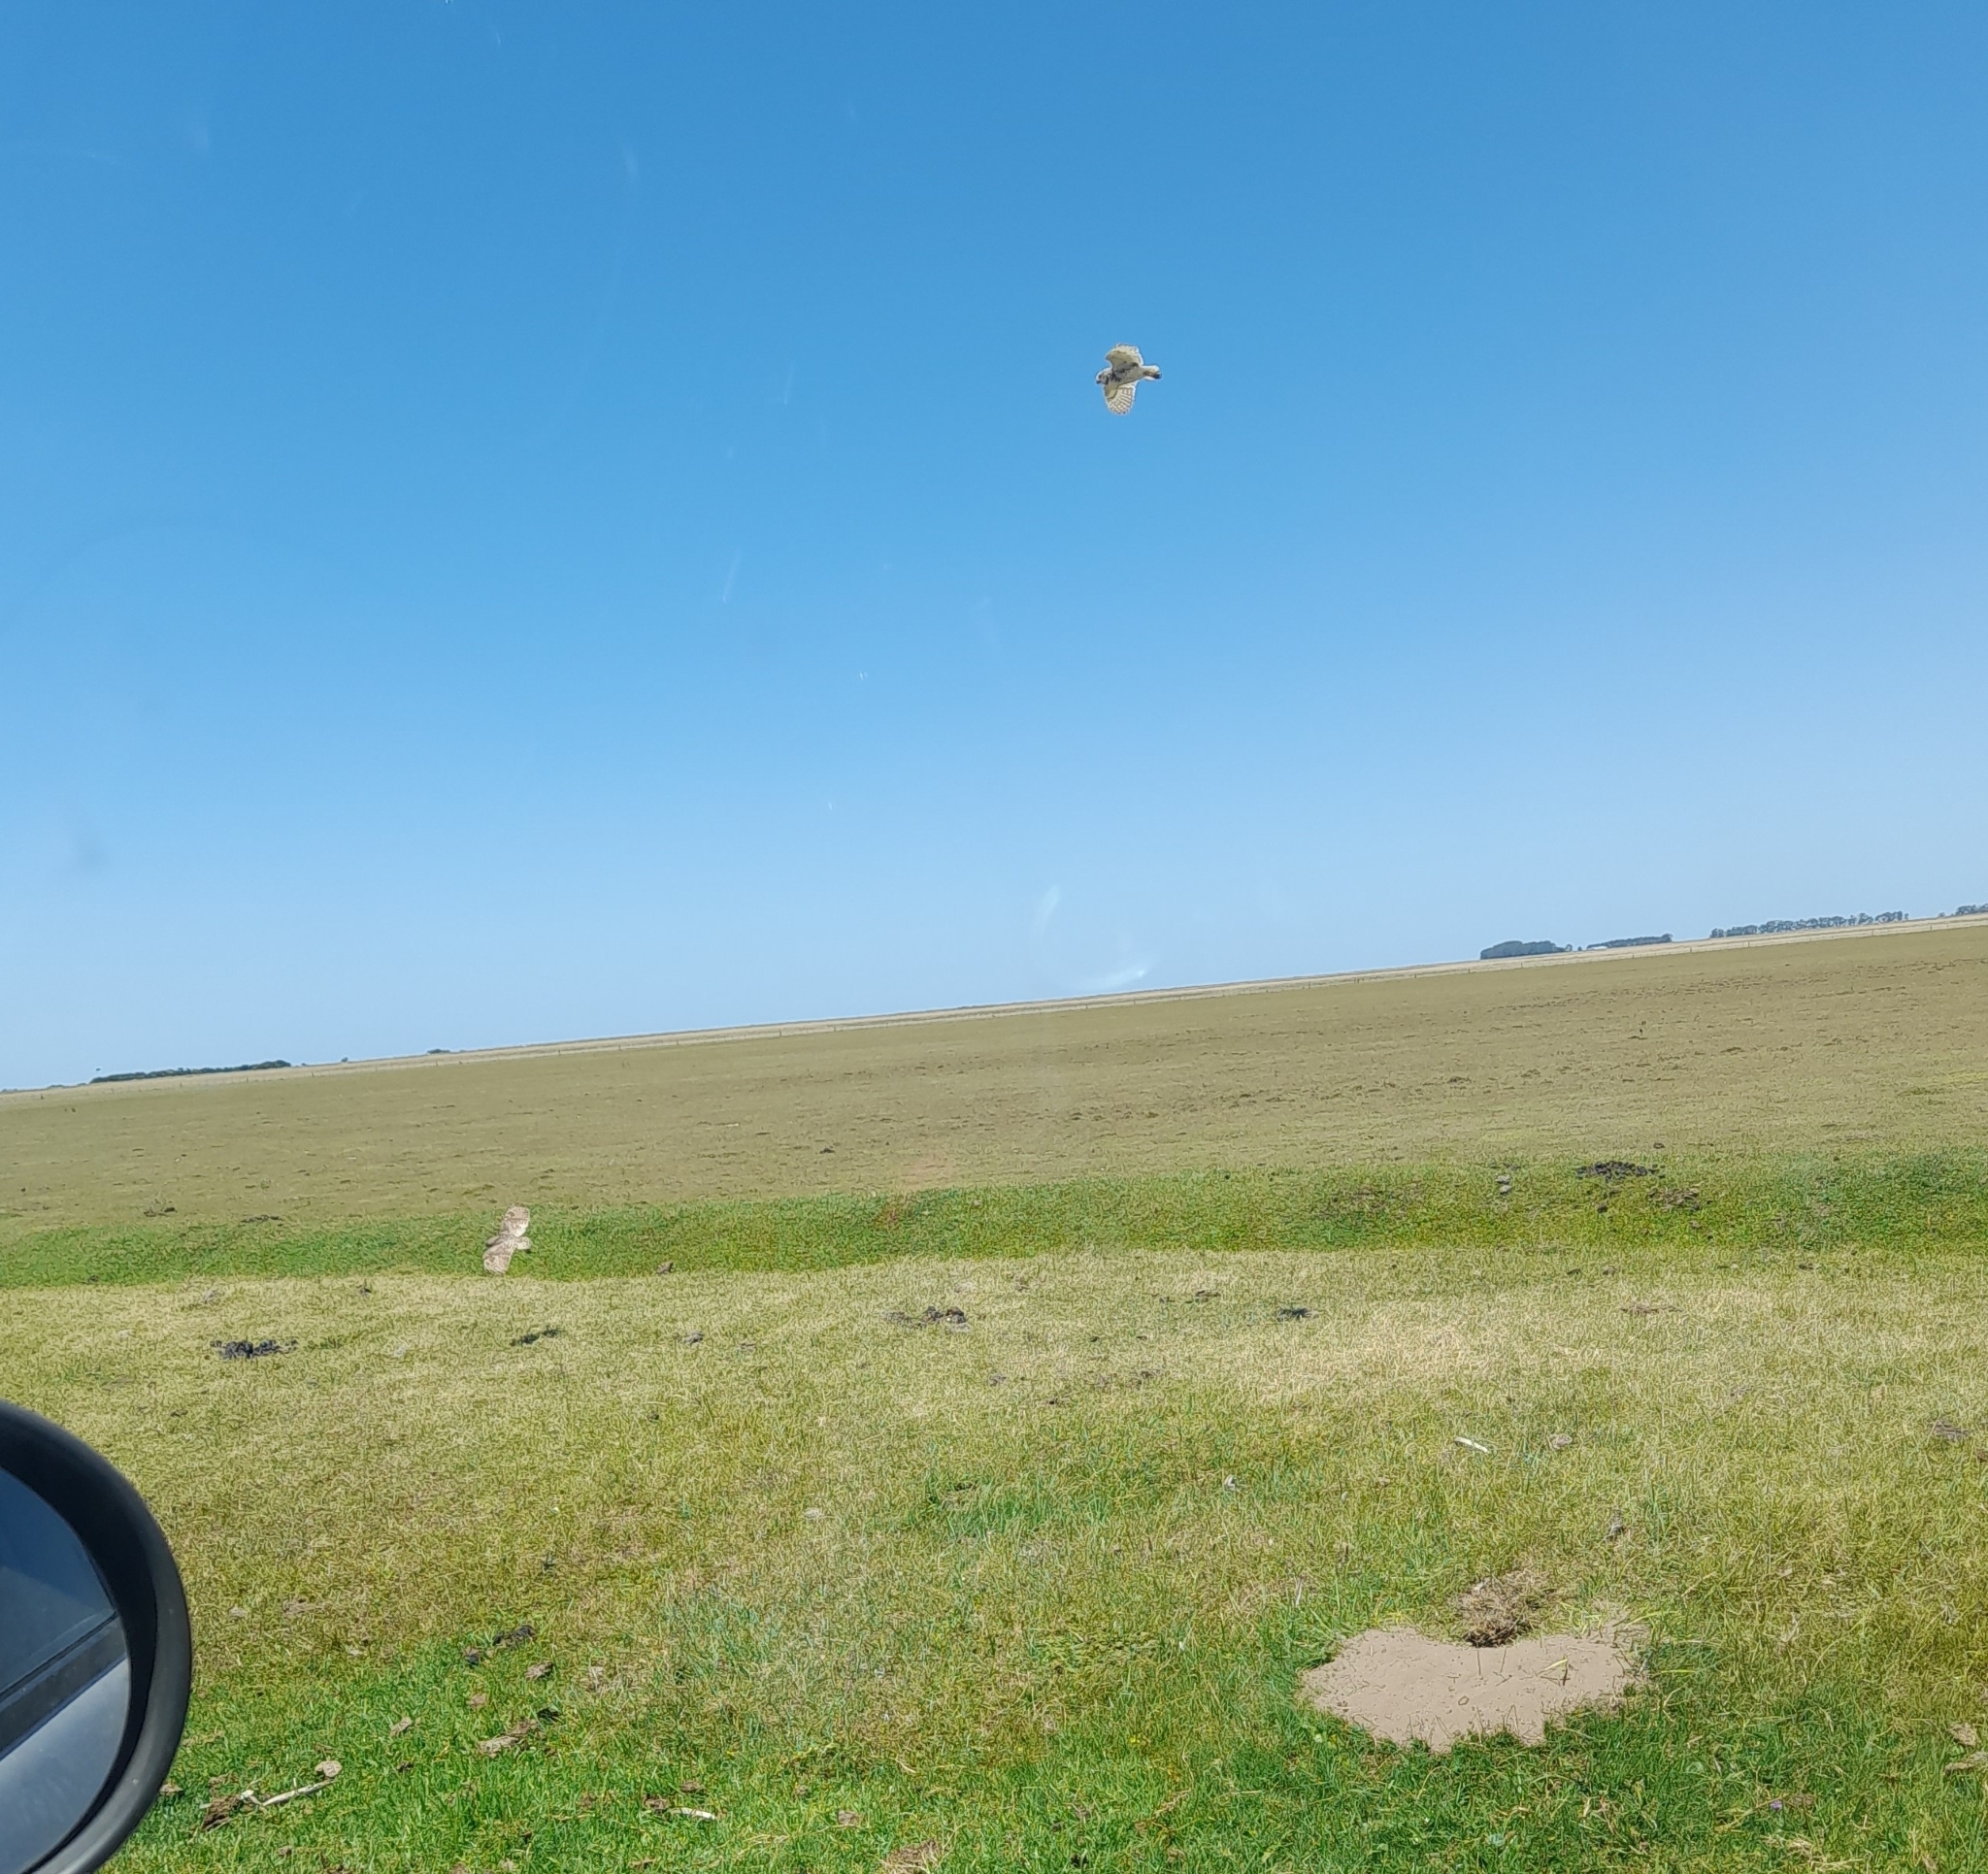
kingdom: Animalia
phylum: Chordata
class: Aves
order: Strigiformes
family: Strigidae
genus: Athene
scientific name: Athene cunicularia
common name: Burrowing owl
